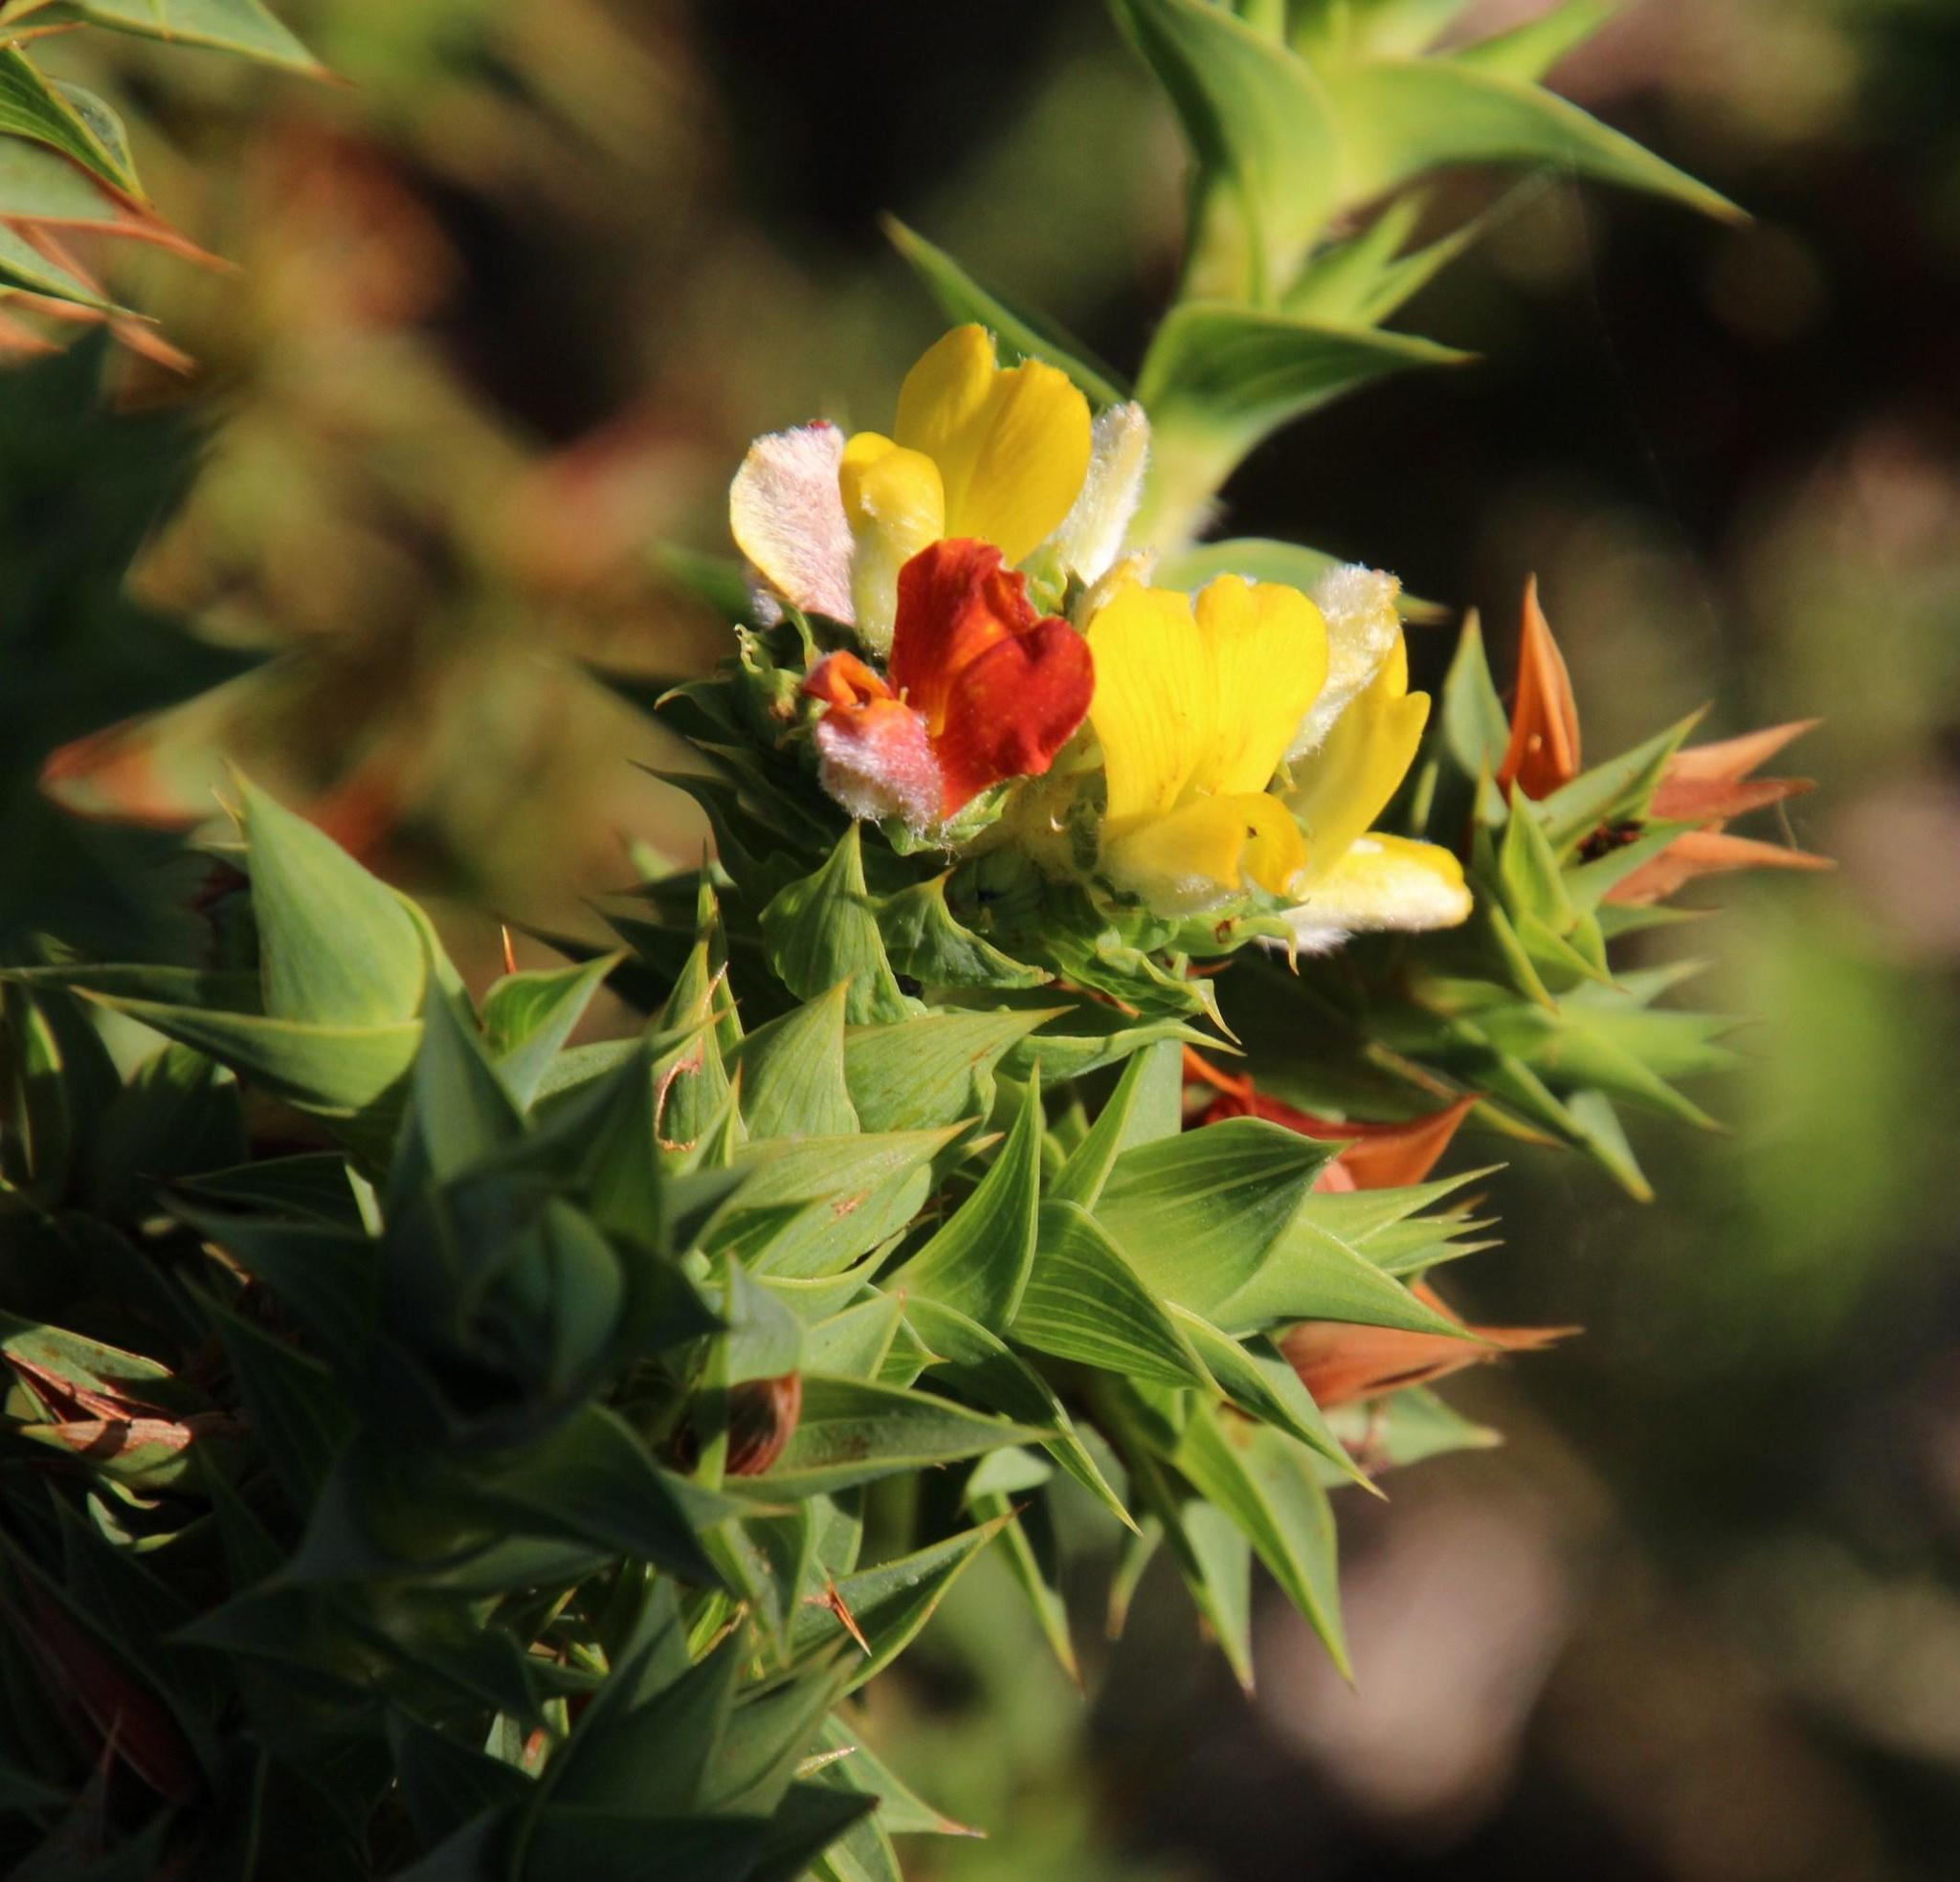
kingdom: Plantae
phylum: Tracheophyta
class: Magnoliopsida
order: Fabales
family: Fabaceae
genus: Aspalathus
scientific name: Aspalathus cordata
